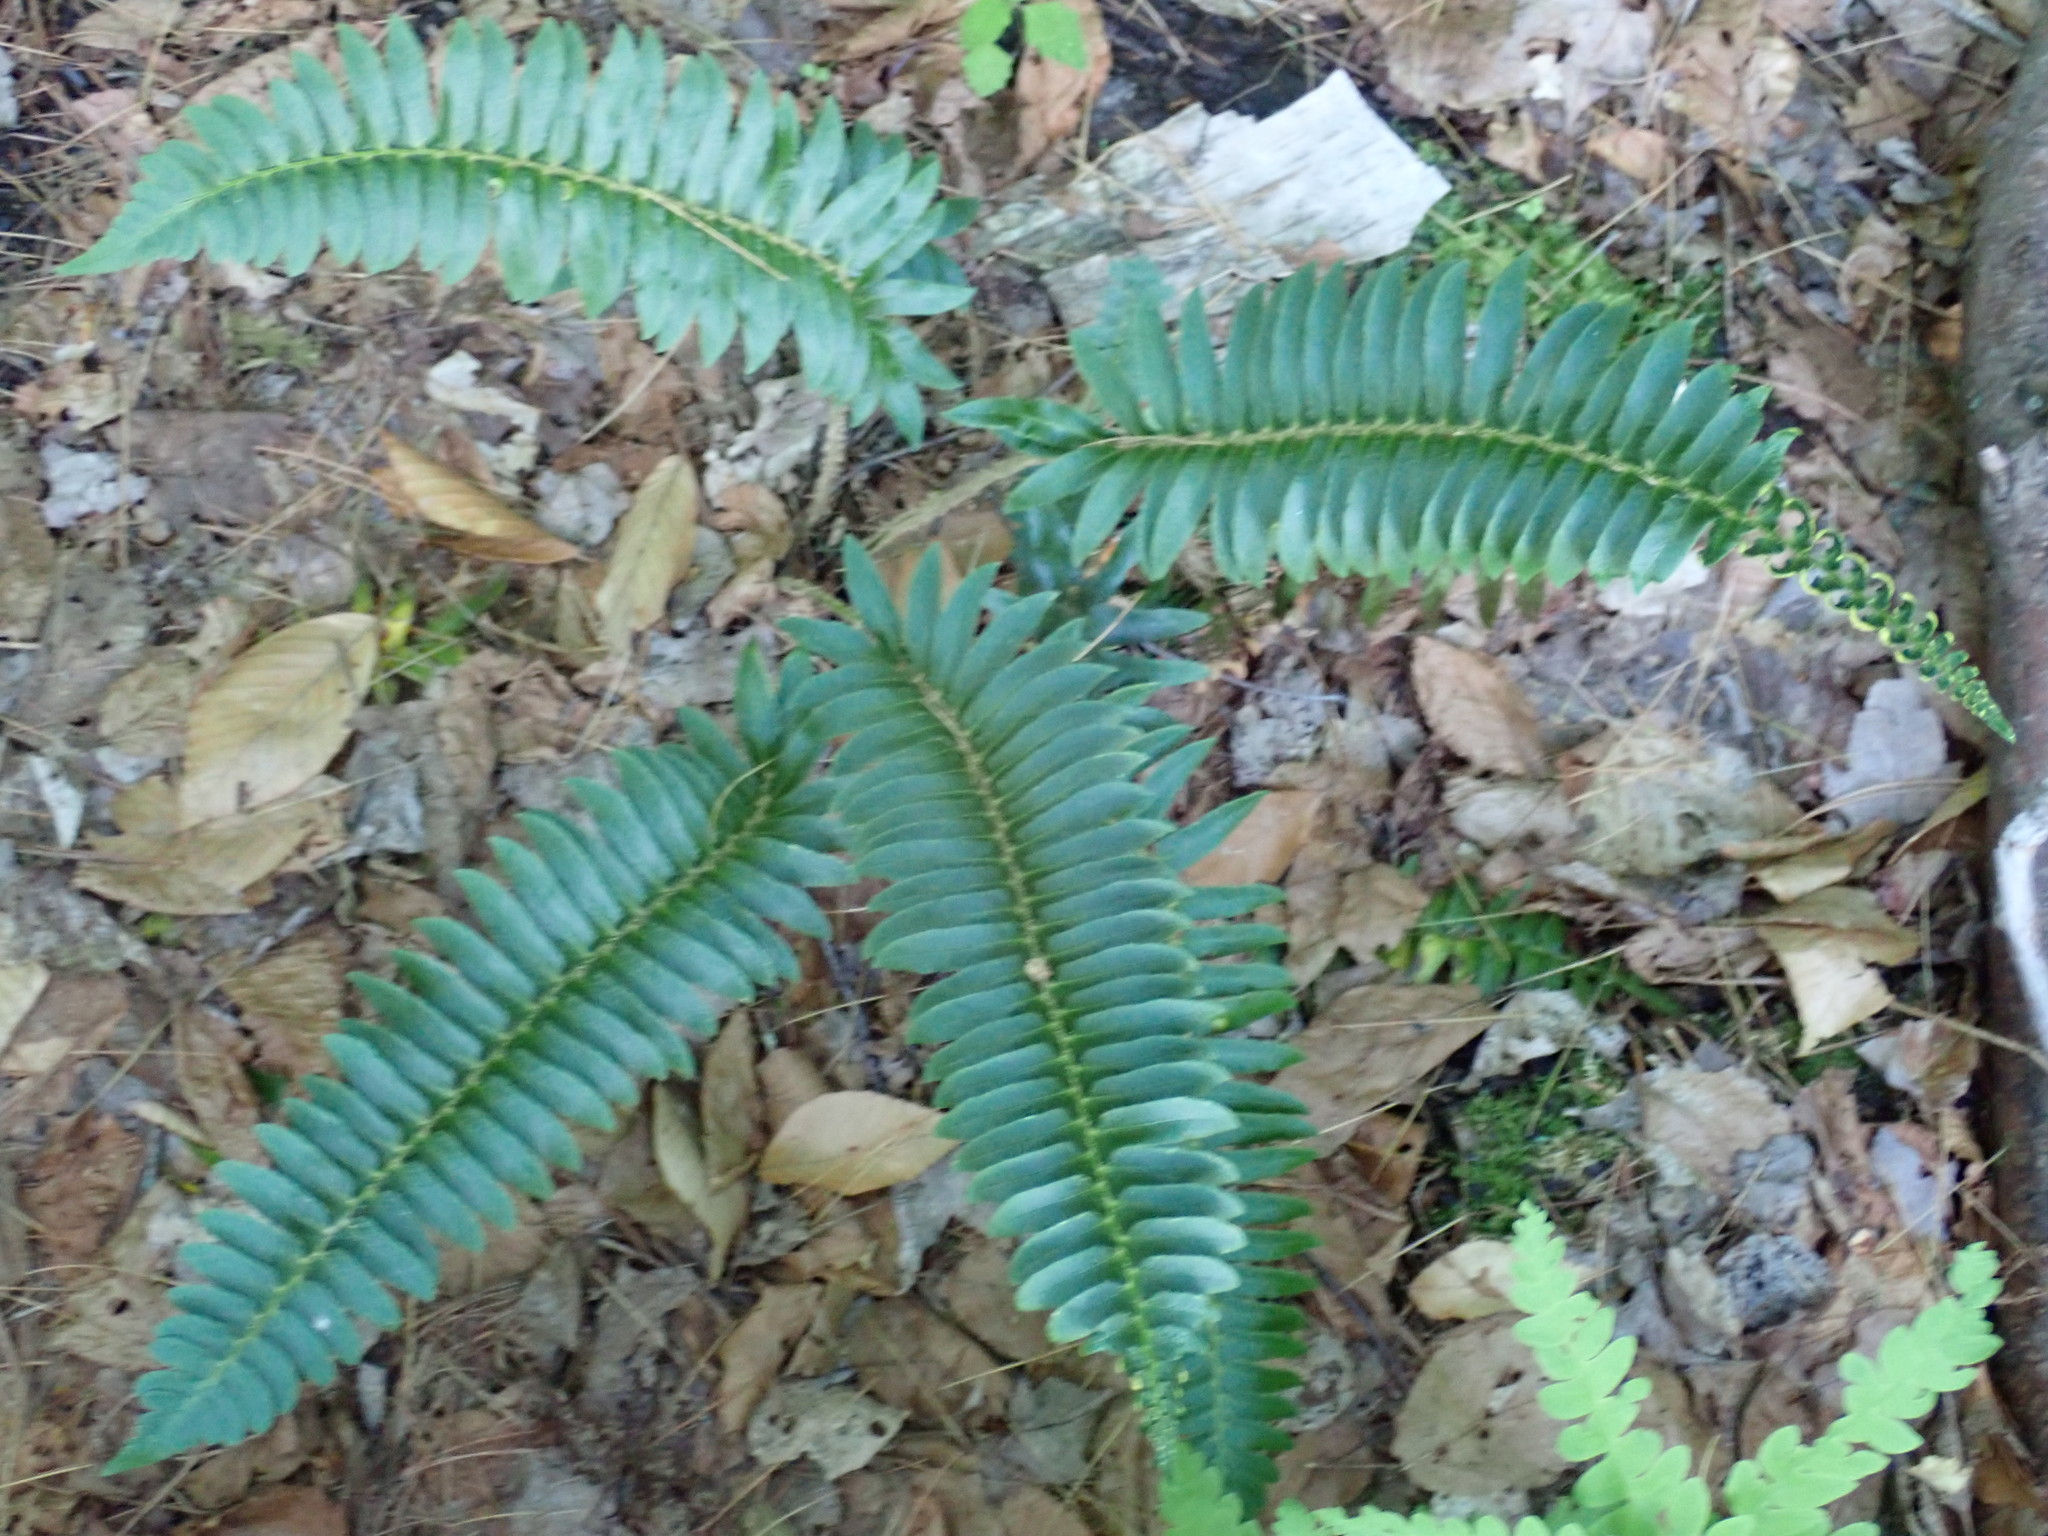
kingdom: Plantae
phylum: Tracheophyta
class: Polypodiopsida
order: Polypodiales
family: Dryopteridaceae
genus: Polystichum
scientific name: Polystichum acrostichoides
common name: Christmas fern
